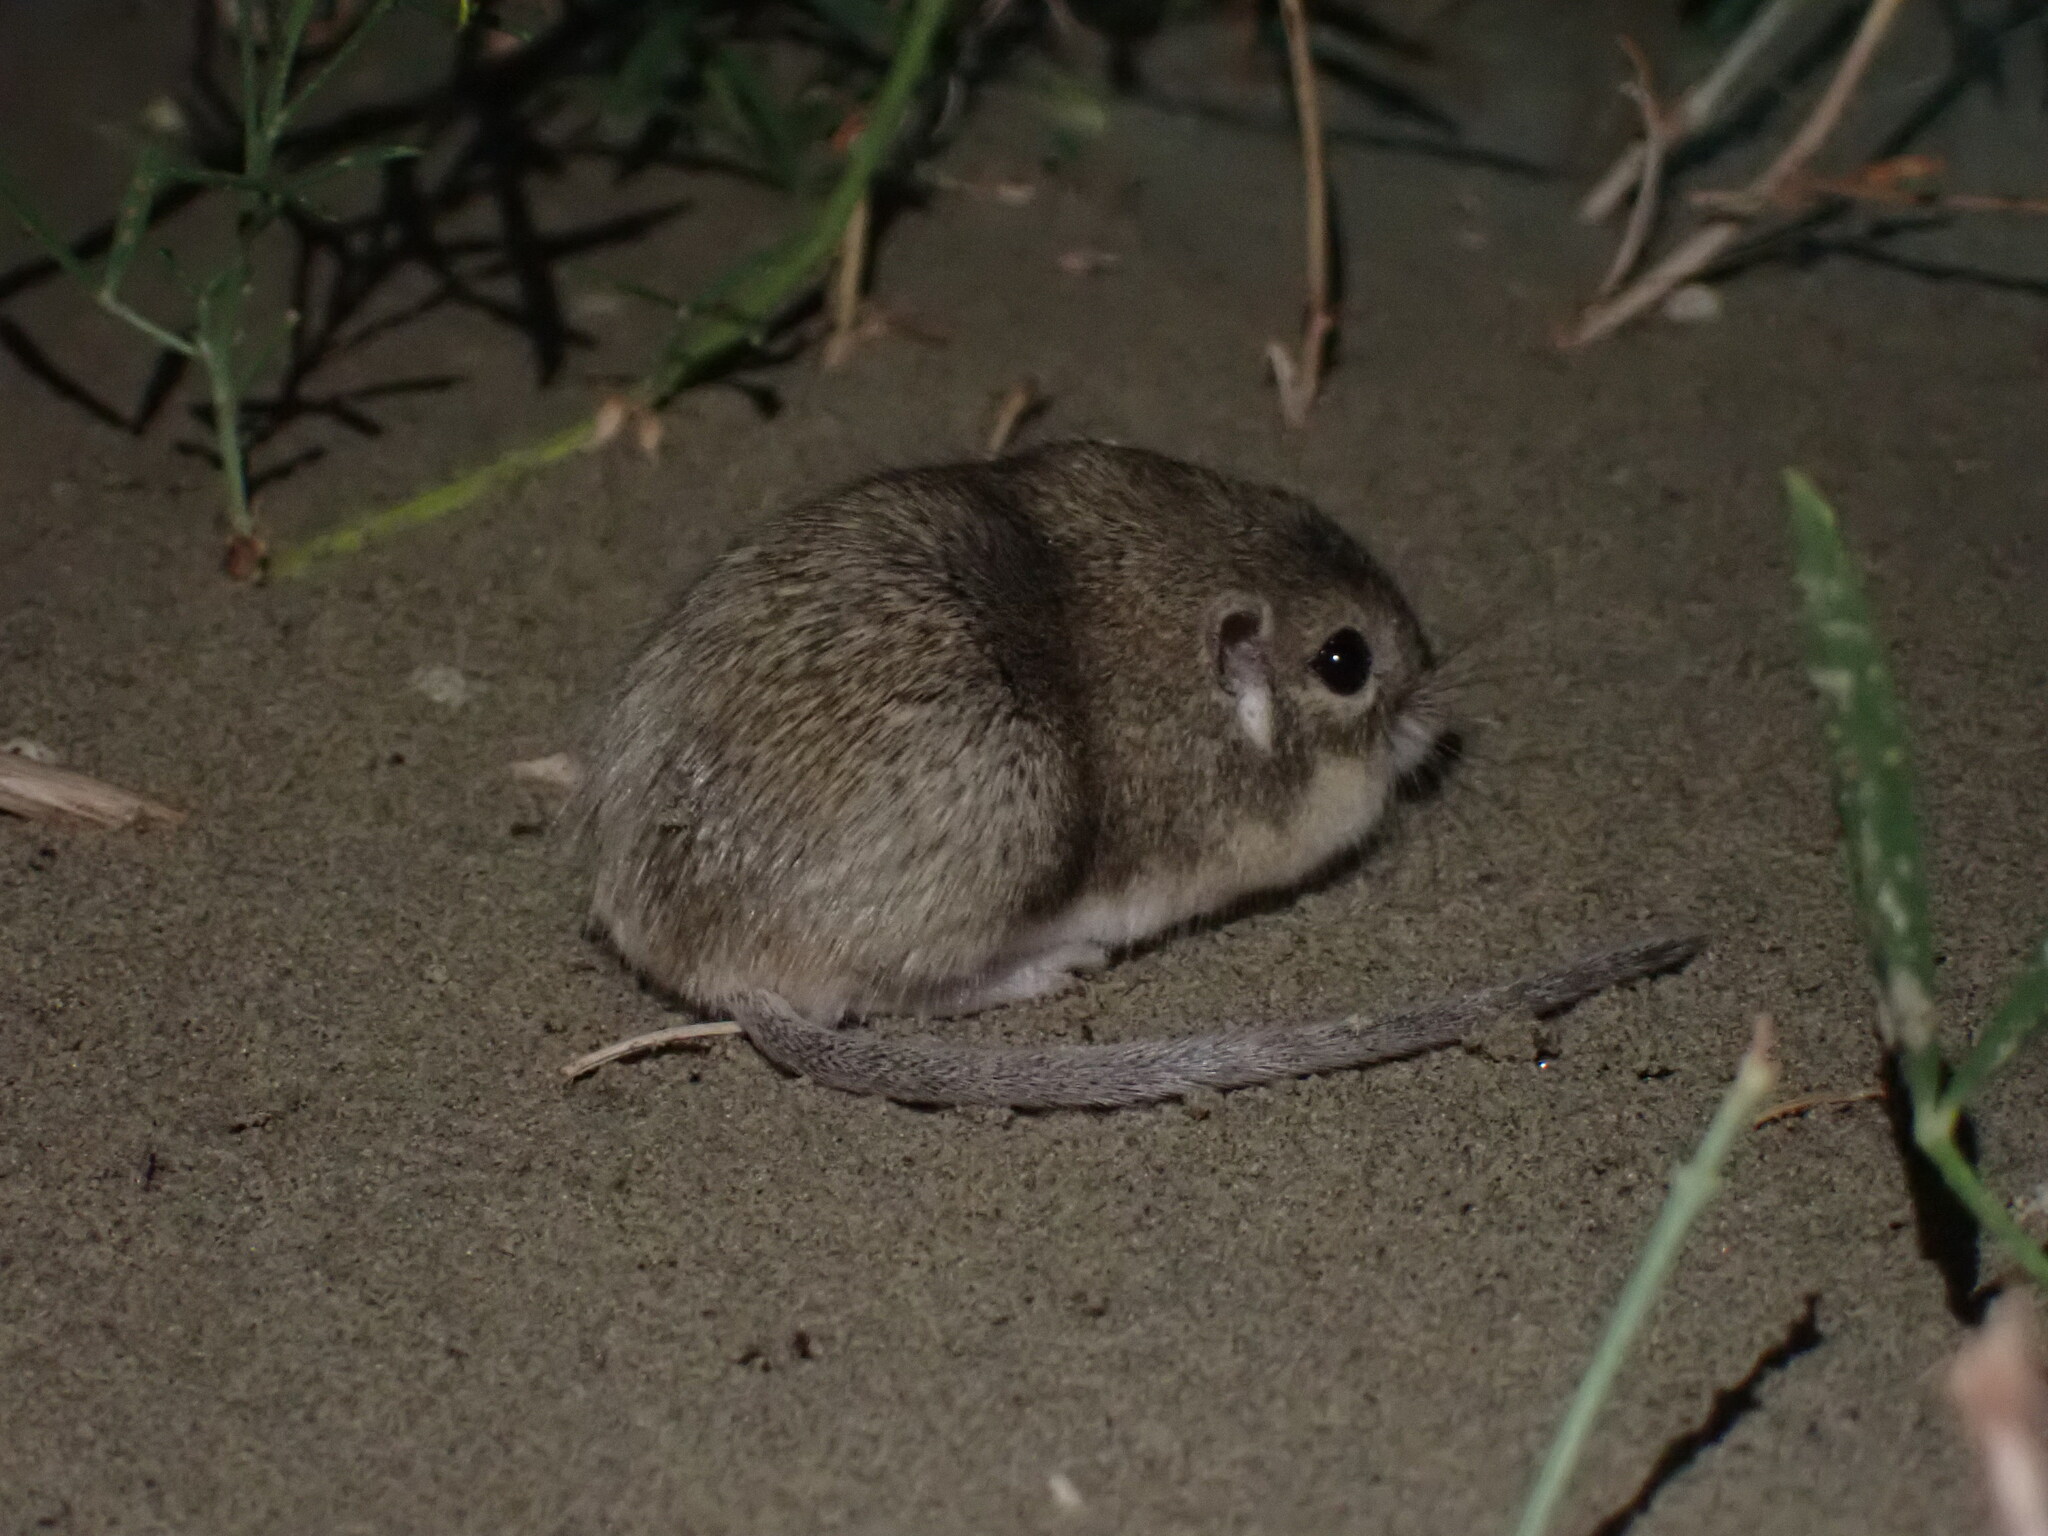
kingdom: Animalia
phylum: Chordata
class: Mammalia
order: Rodentia
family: Heteromyidae
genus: Perognathus
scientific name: Perognathus fasciatus
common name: Olive-backed pocket mouse
